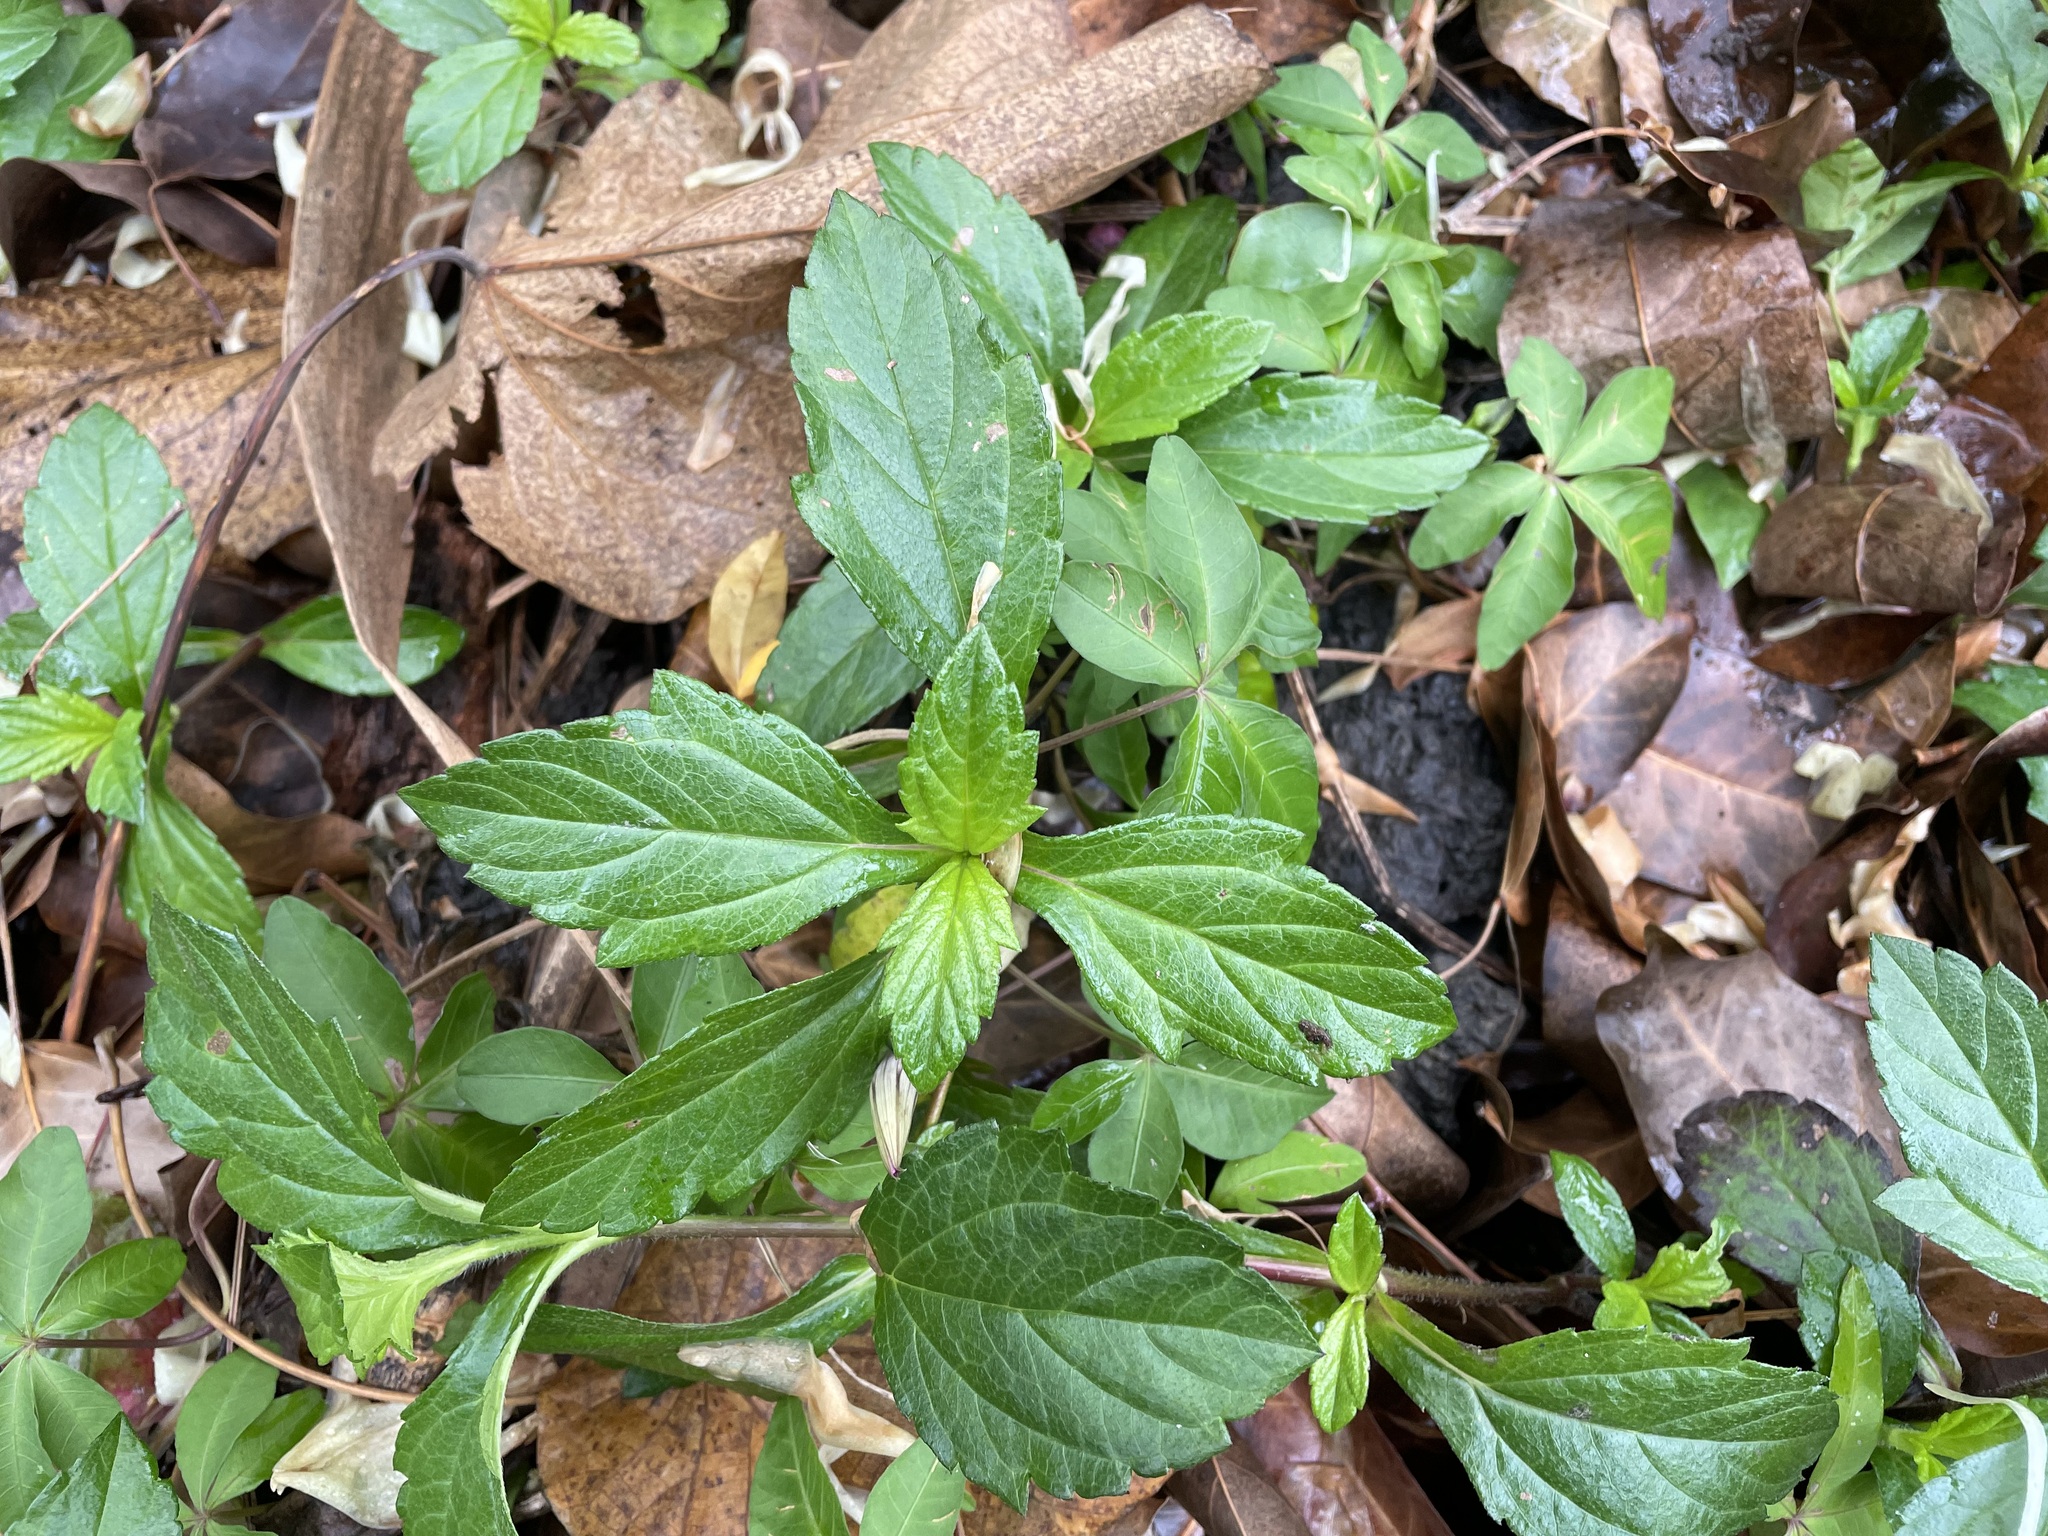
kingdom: Plantae
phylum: Tracheophyta
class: Magnoliopsida
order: Asterales
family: Asteraceae
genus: Sphagneticola
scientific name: Sphagneticola trilobata
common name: Bay biscayne creeping-oxeye
